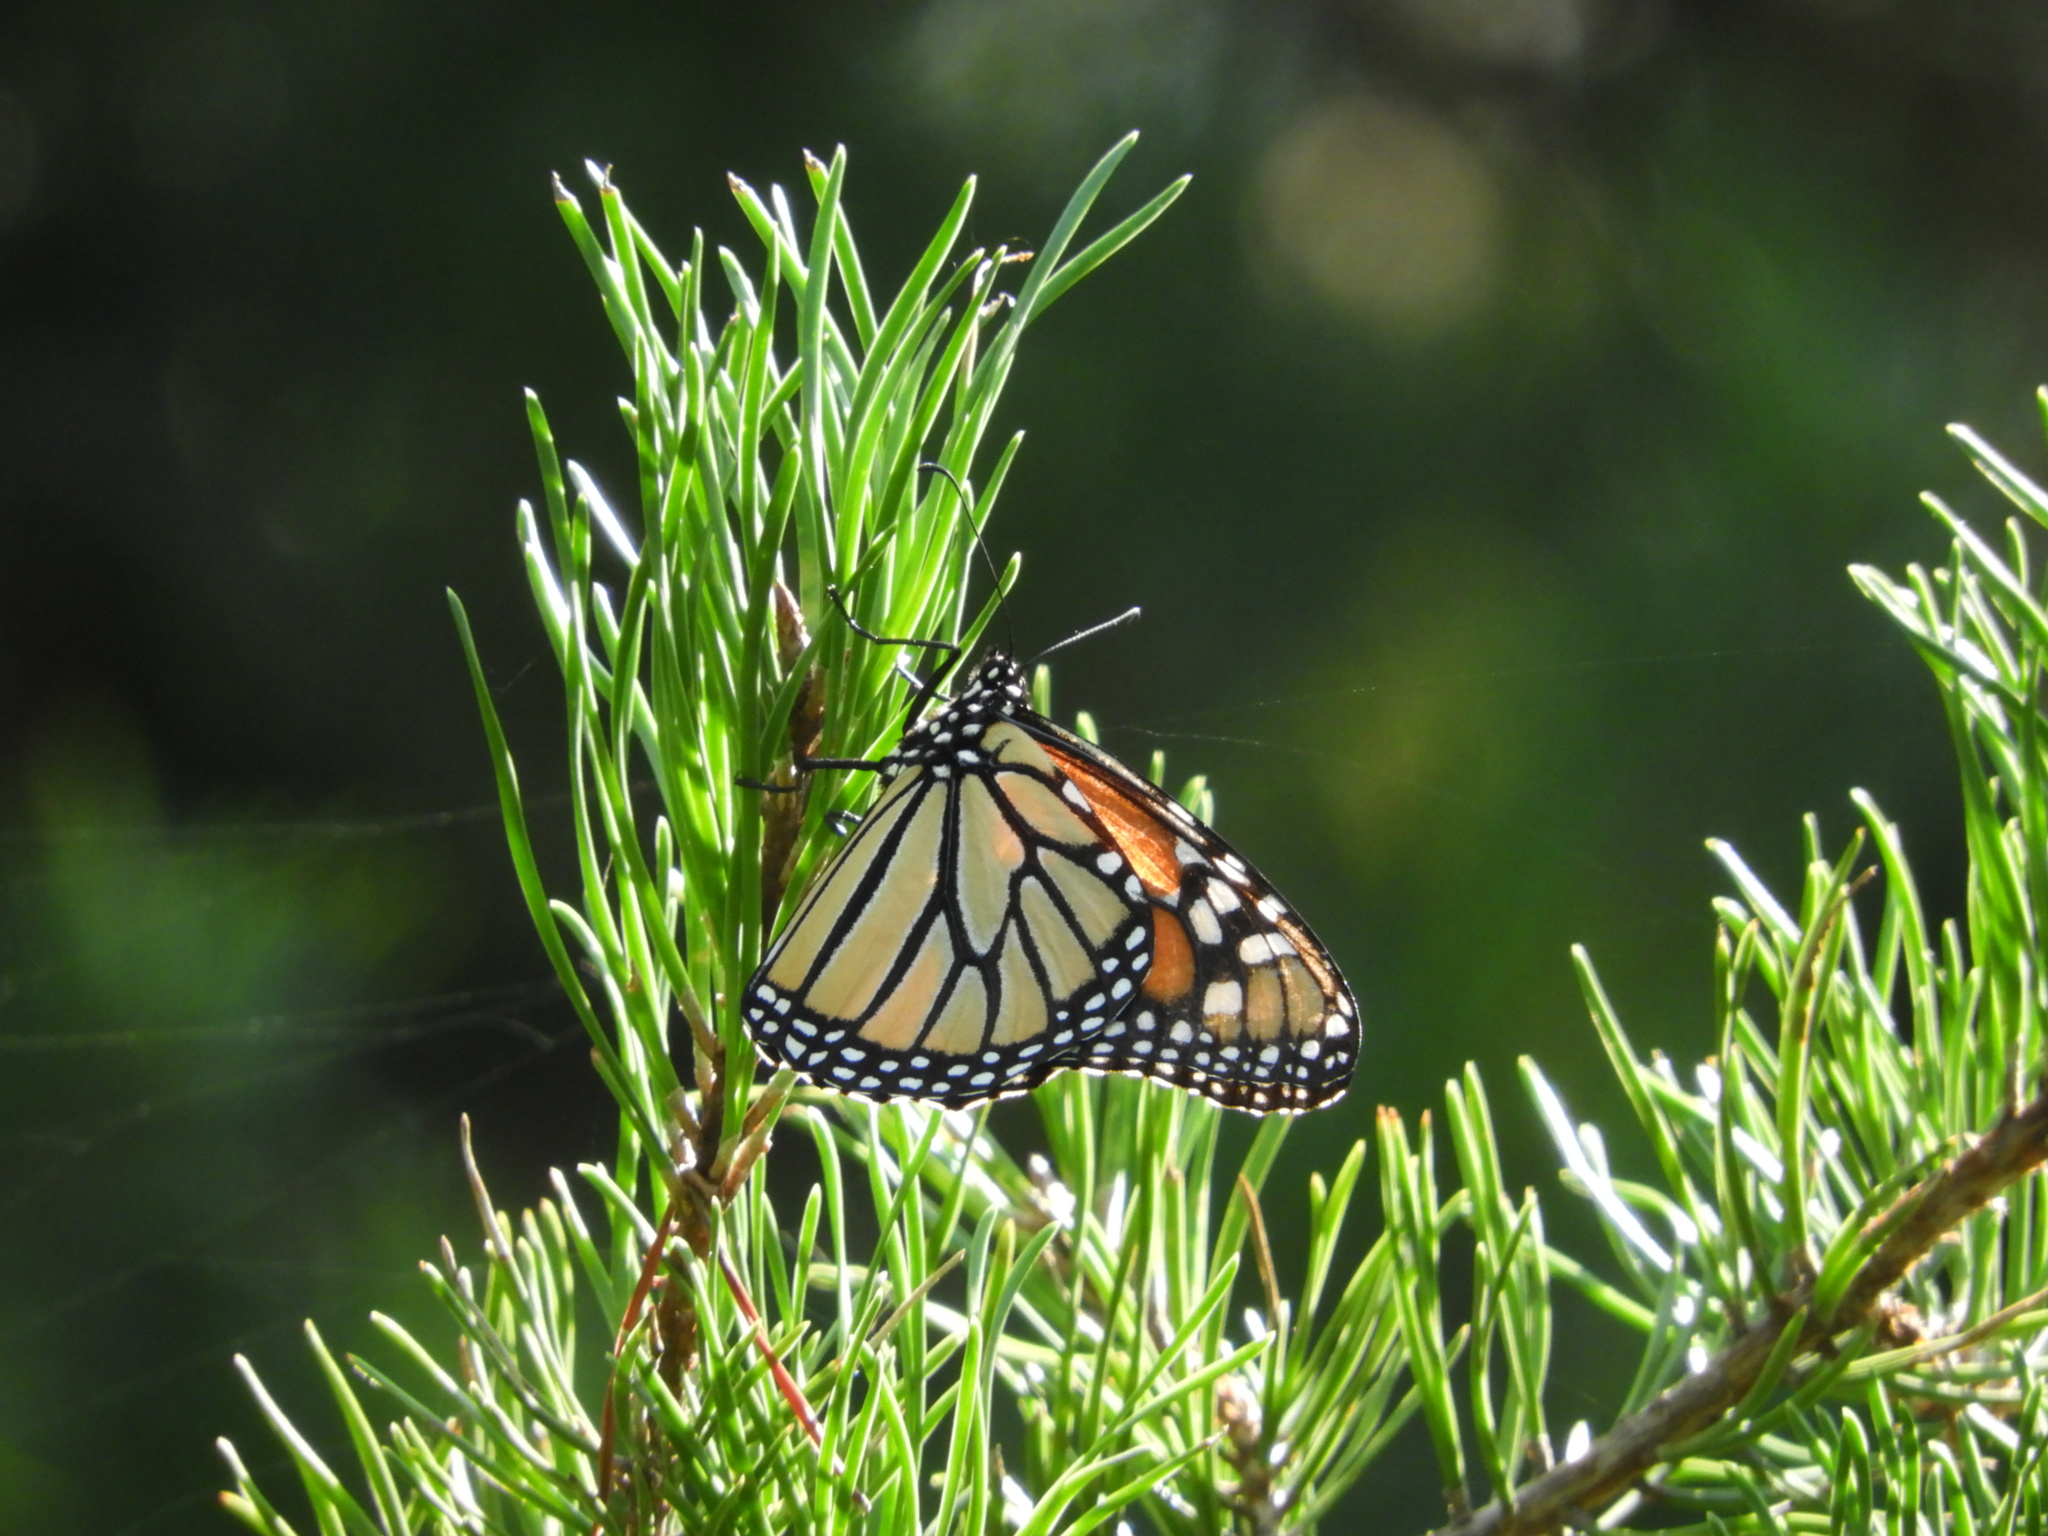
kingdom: Animalia
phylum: Arthropoda
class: Insecta
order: Lepidoptera
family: Nymphalidae
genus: Danaus
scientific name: Danaus plexippus
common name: Monarch
